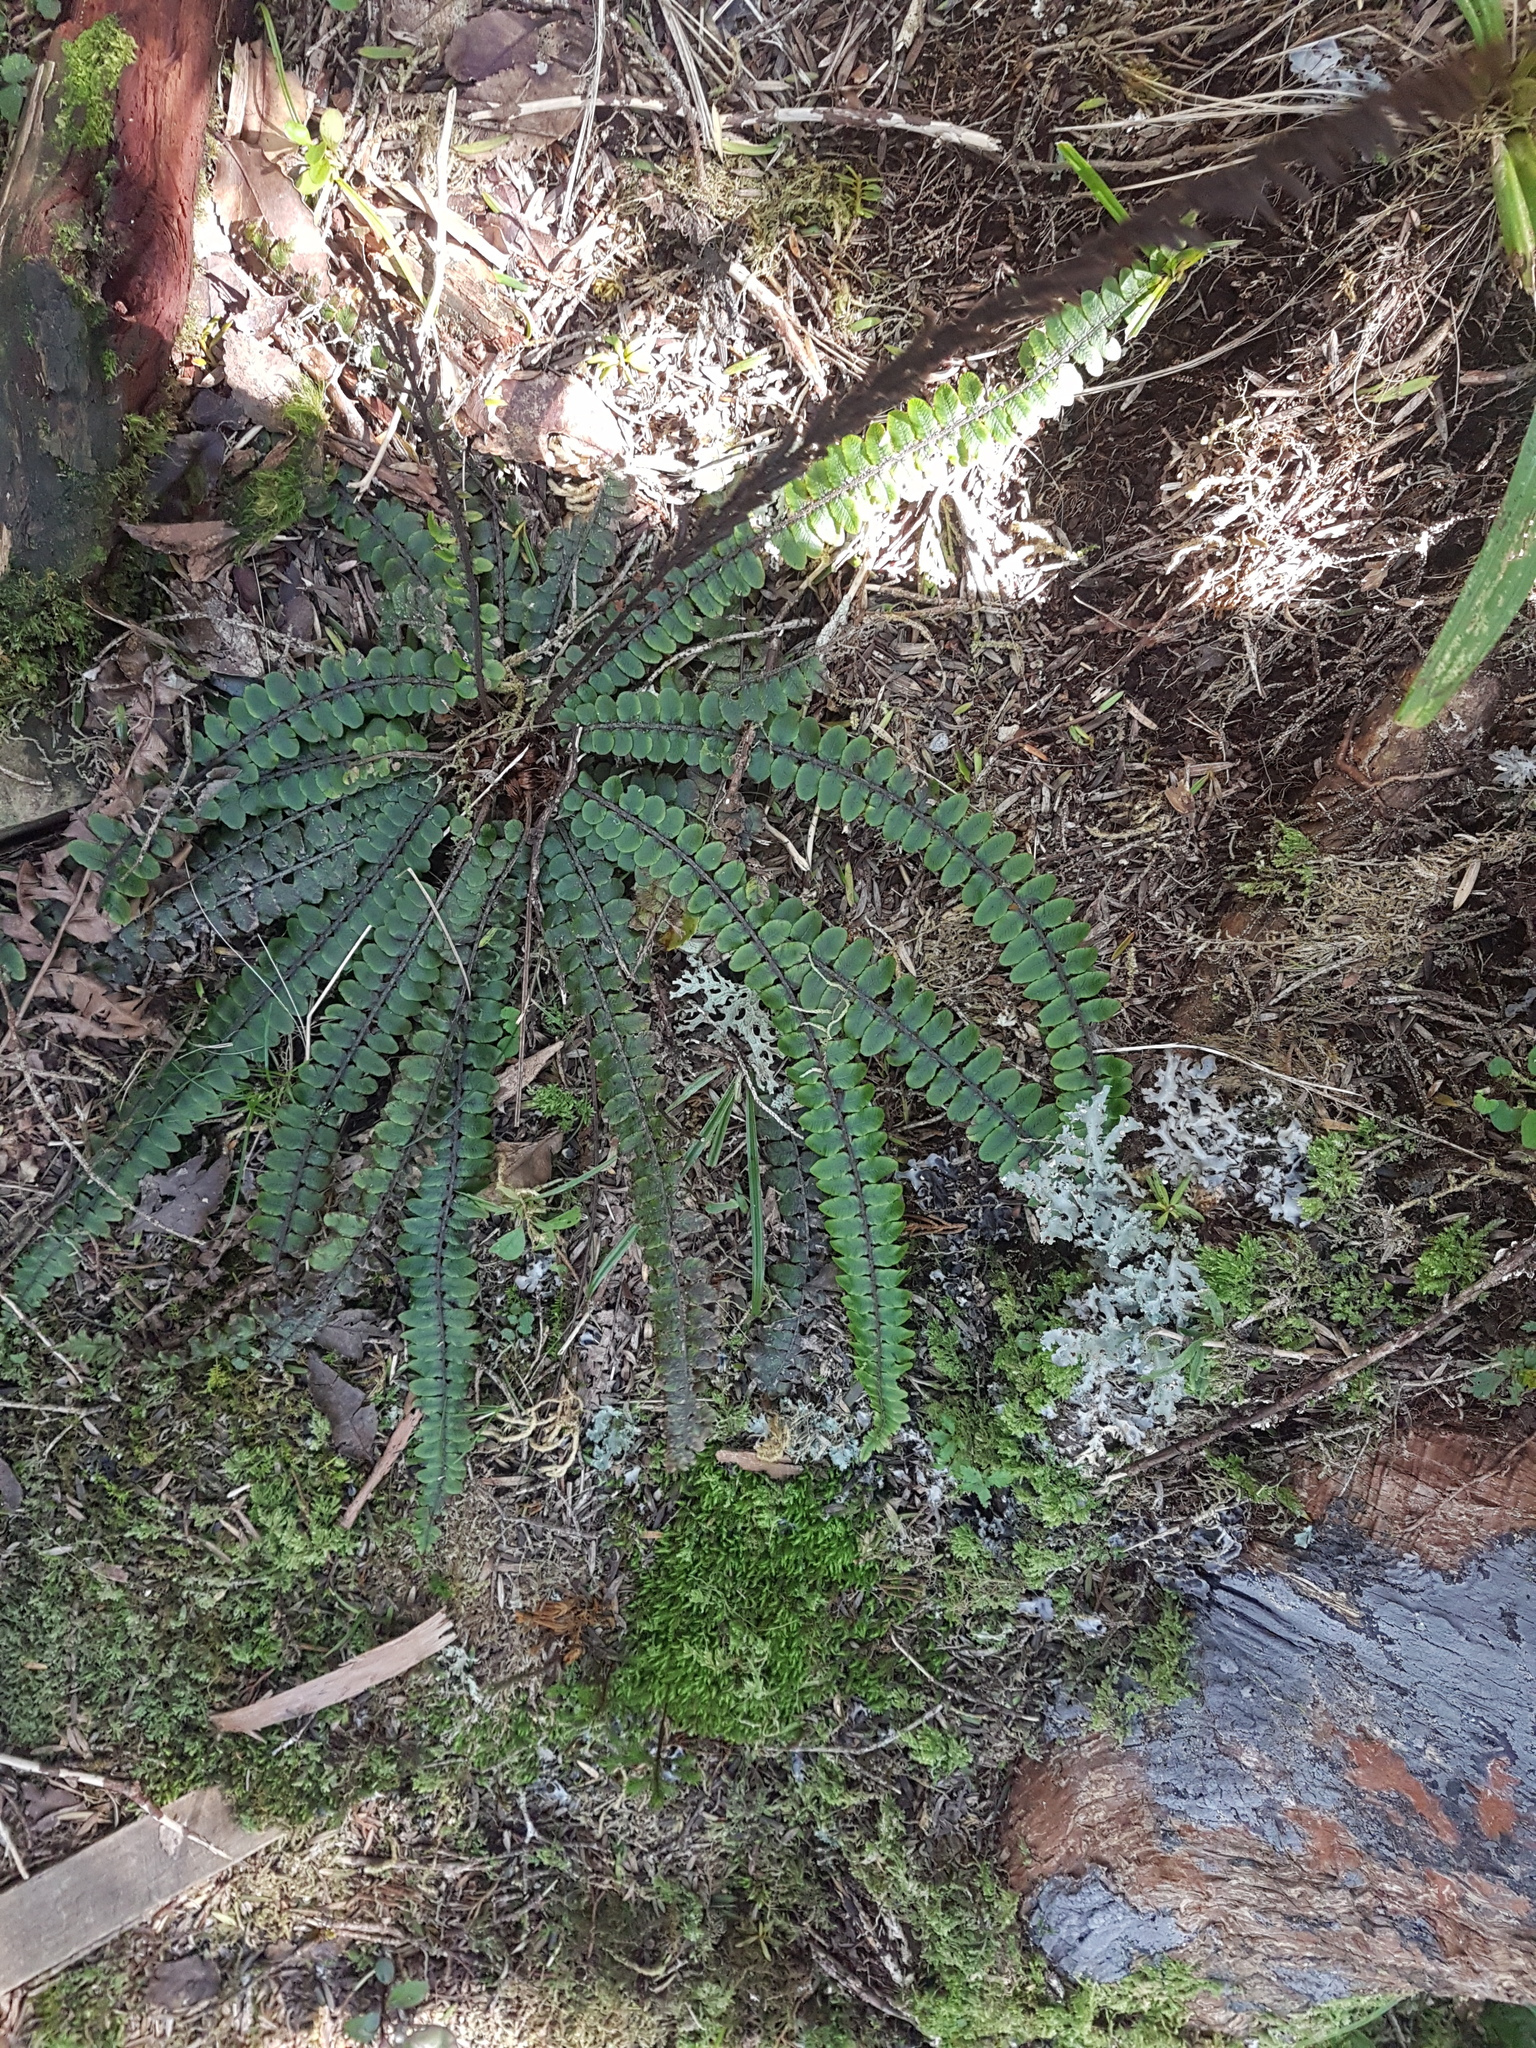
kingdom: Plantae
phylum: Tracheophyta
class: Polypodiopsida
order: Polypodiales
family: Blechnaceae
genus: Cranfillia
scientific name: Cranfillia fluviatilis
